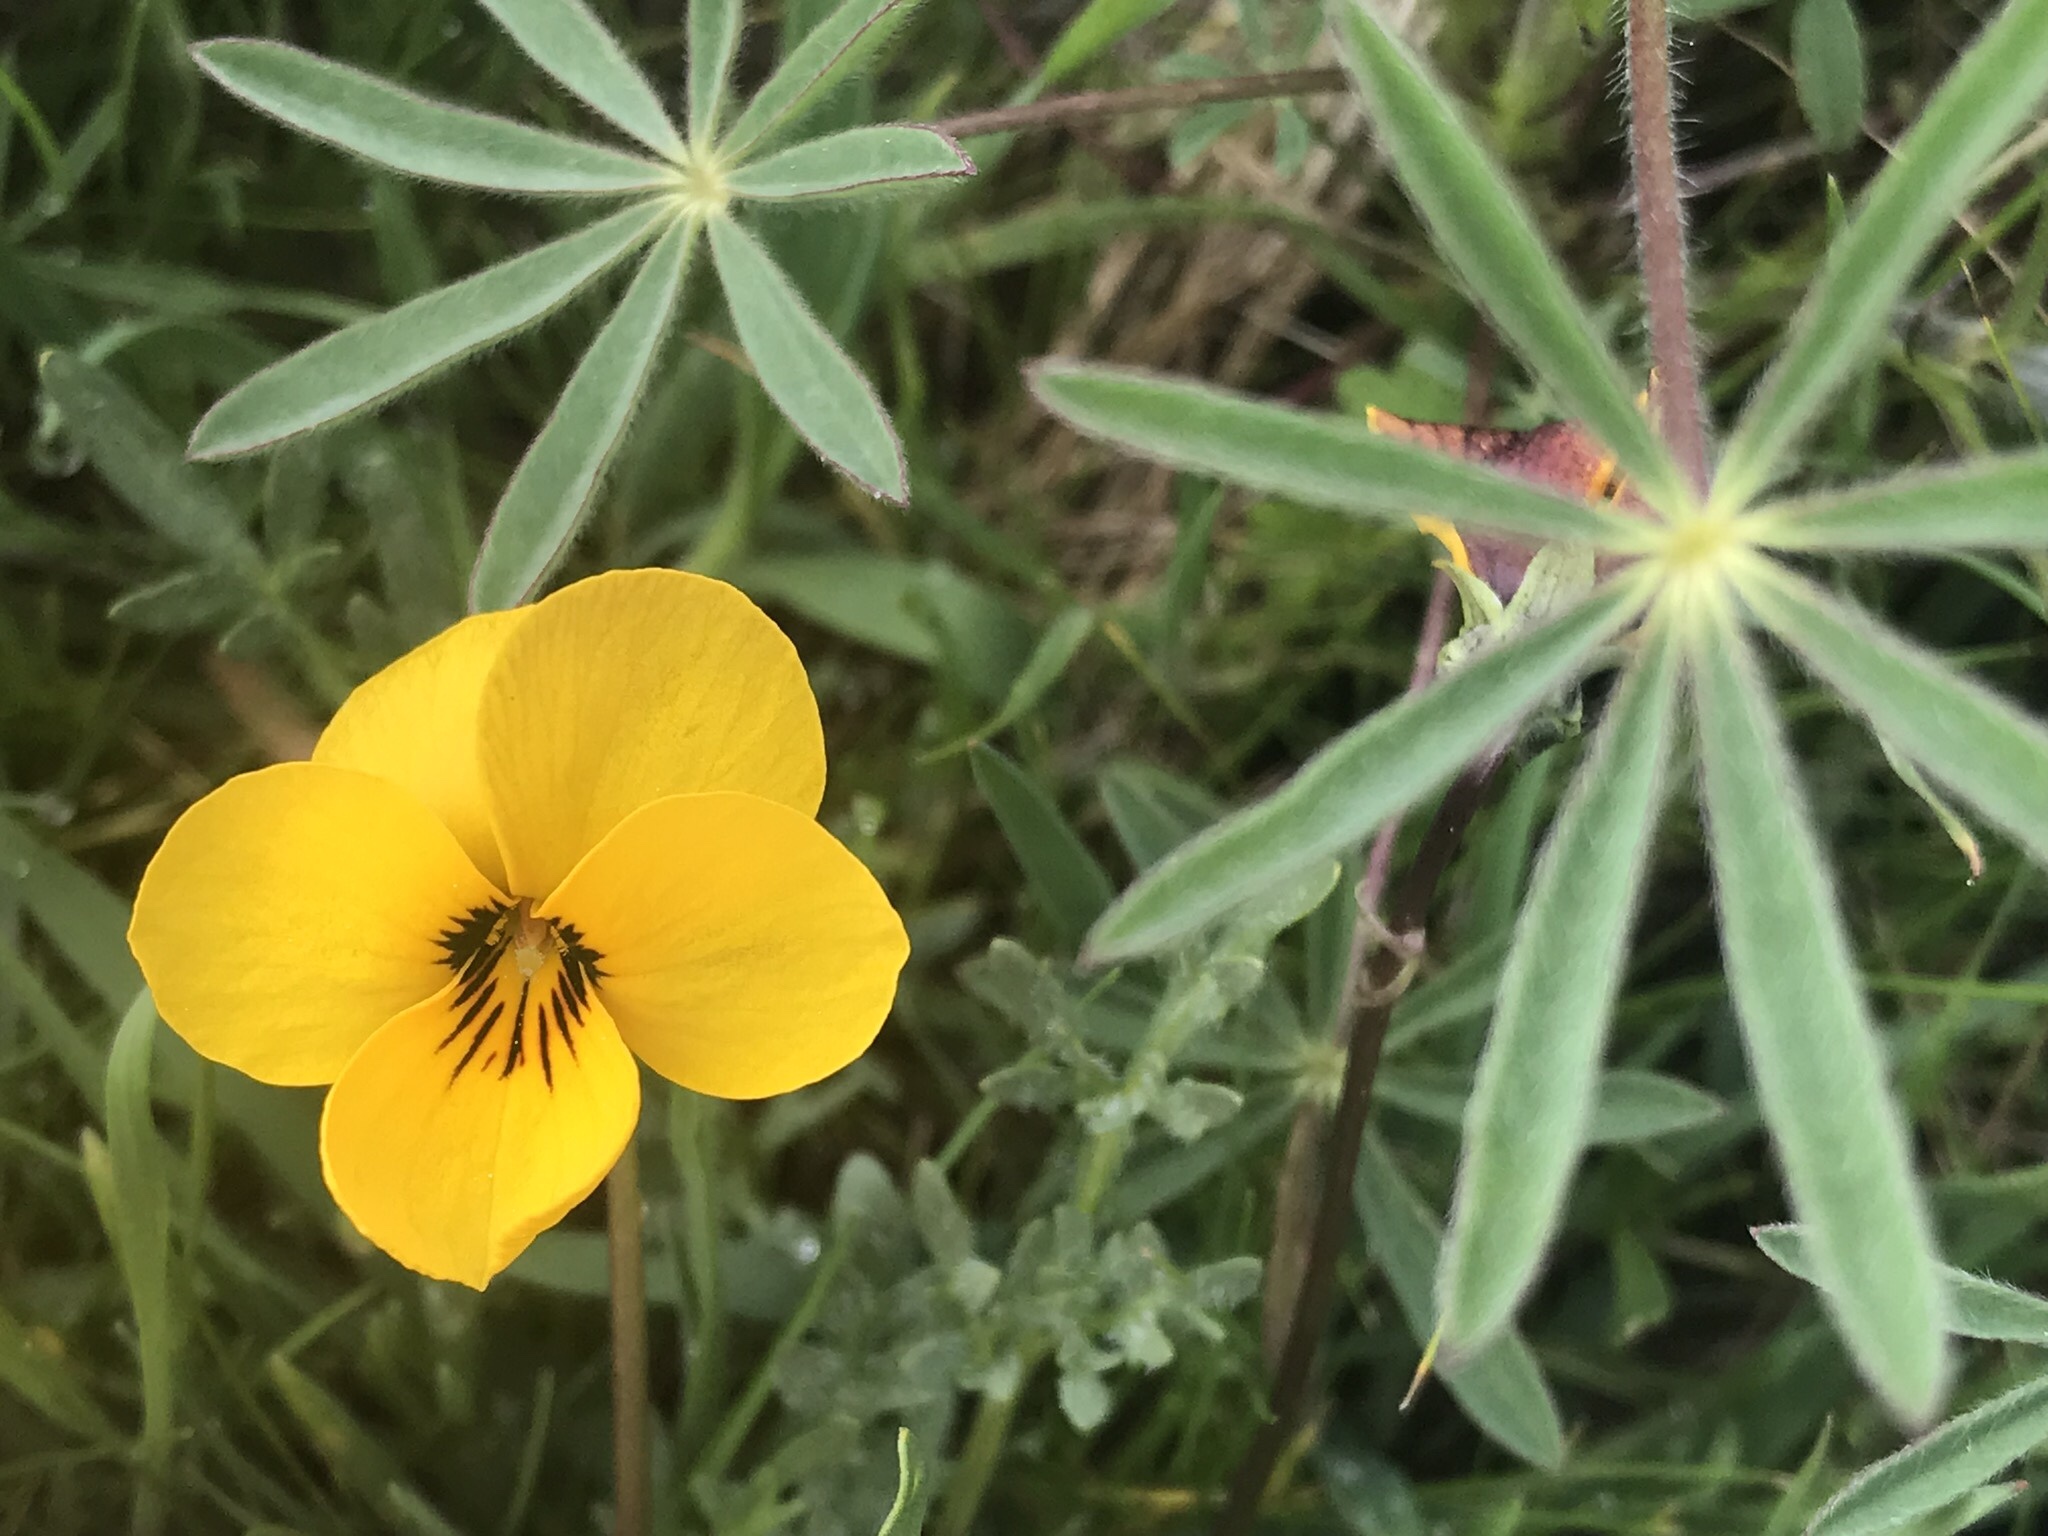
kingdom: Plantae
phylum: Tracheophyta
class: Magnoliopsida
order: Malpighiales
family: Violaceae
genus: Viola
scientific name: Viola douglasii
